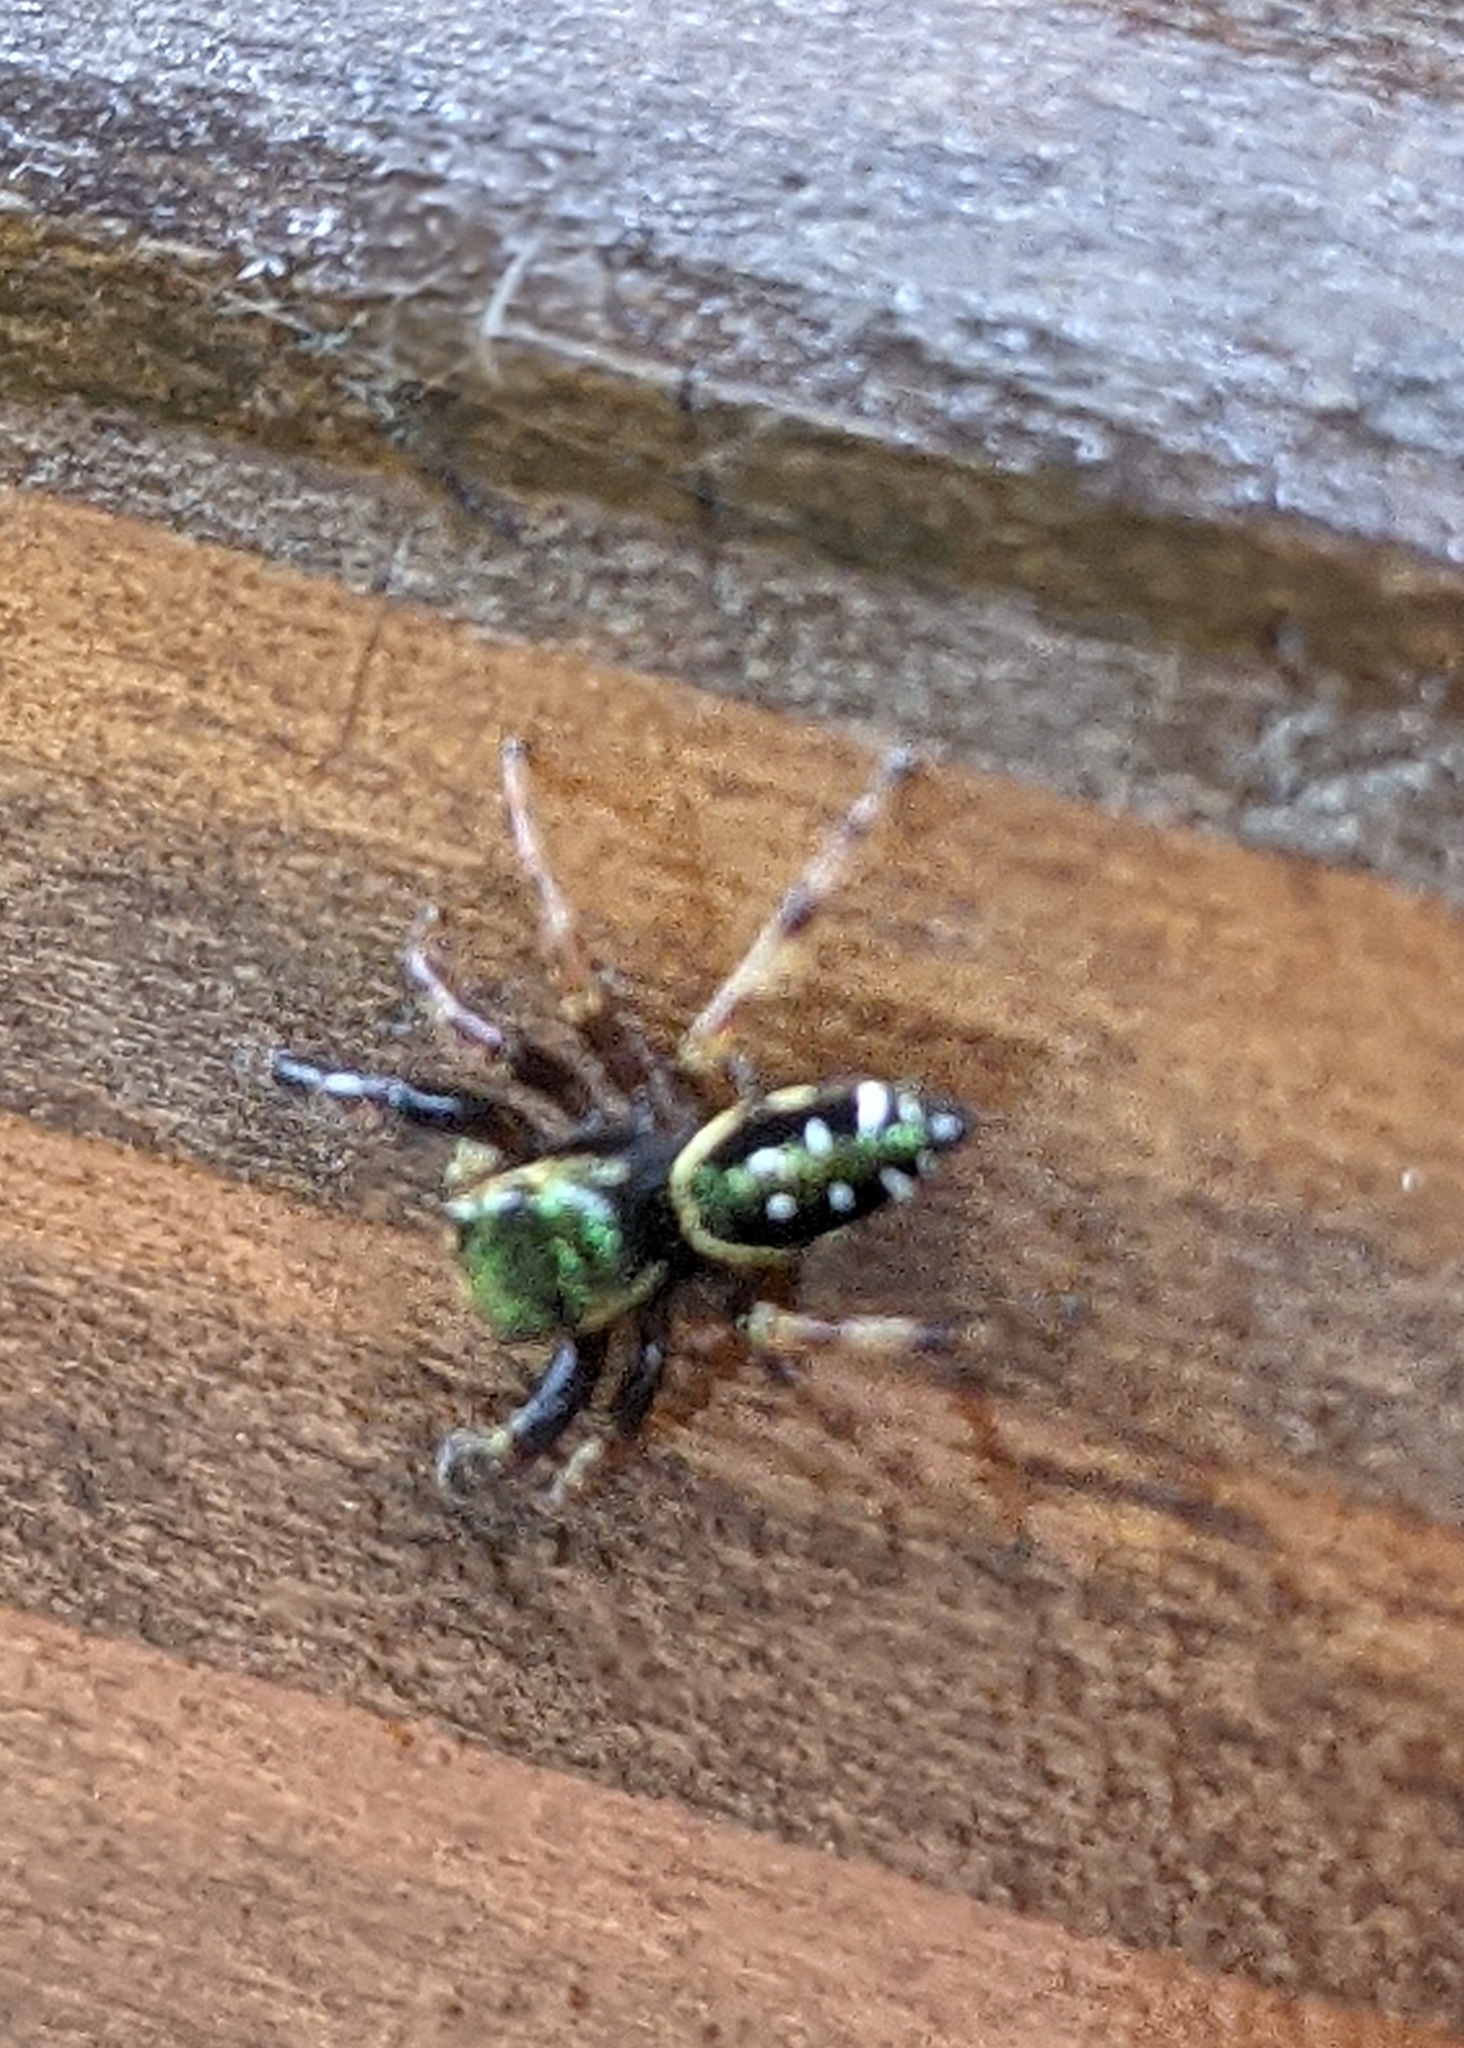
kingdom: Animalia
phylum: Arthropoda
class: Arachnida
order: Araneae
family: Salticidae
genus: Paraphidippus
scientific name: Paraphidippus aurantius
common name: Jumping spiders
